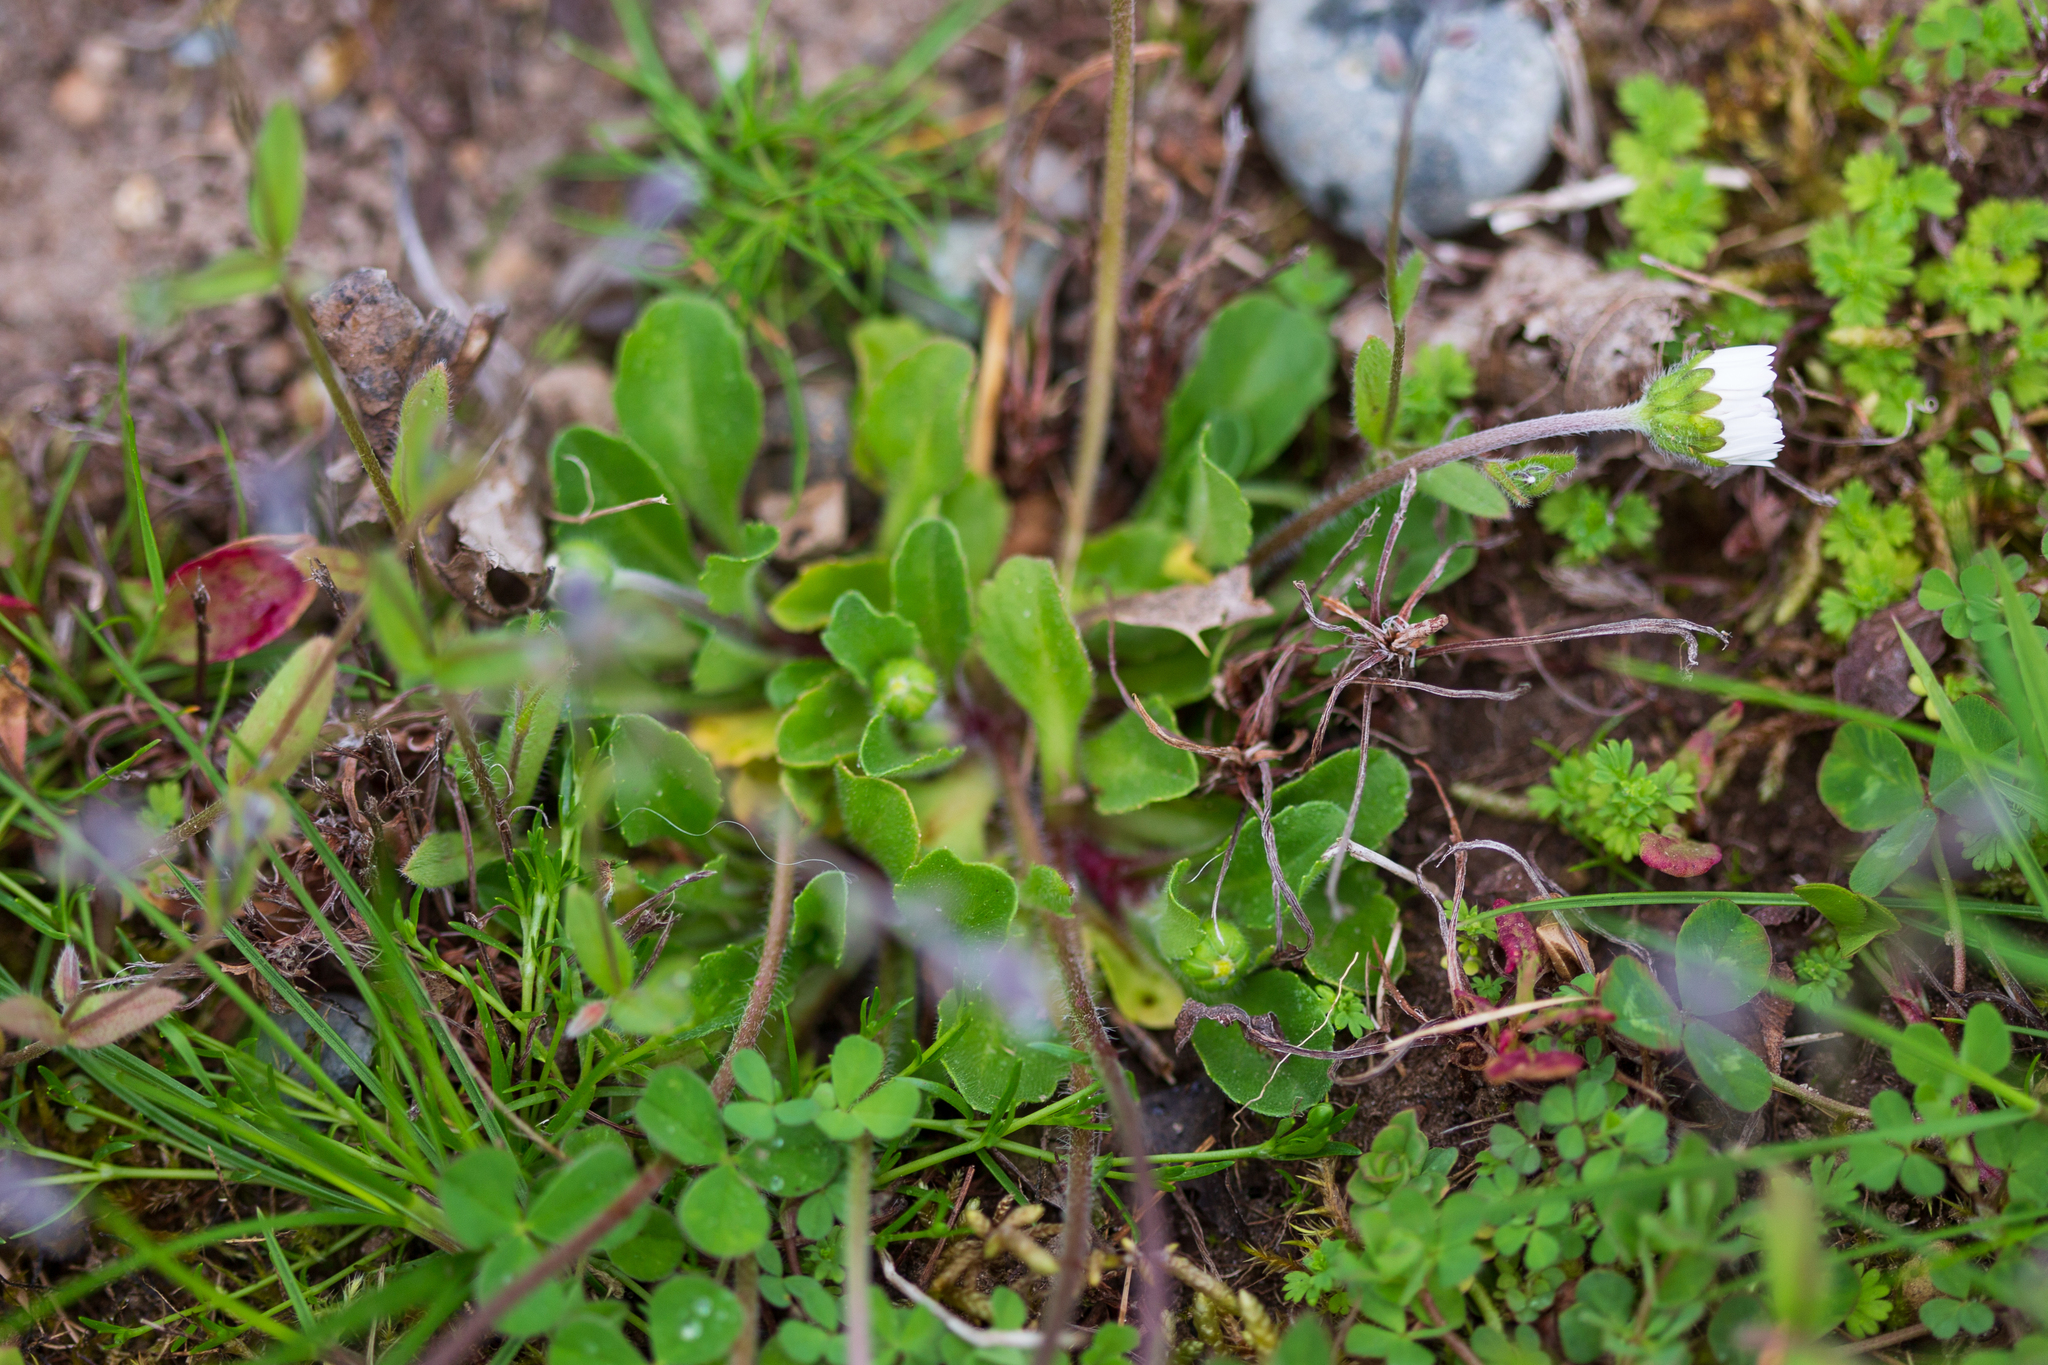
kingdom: Plantae
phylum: Tracheophyta
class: Magnoliopsida
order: Asterales
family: Asteraceae
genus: Bellis
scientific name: Bellis perennis
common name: Lawndaisy
